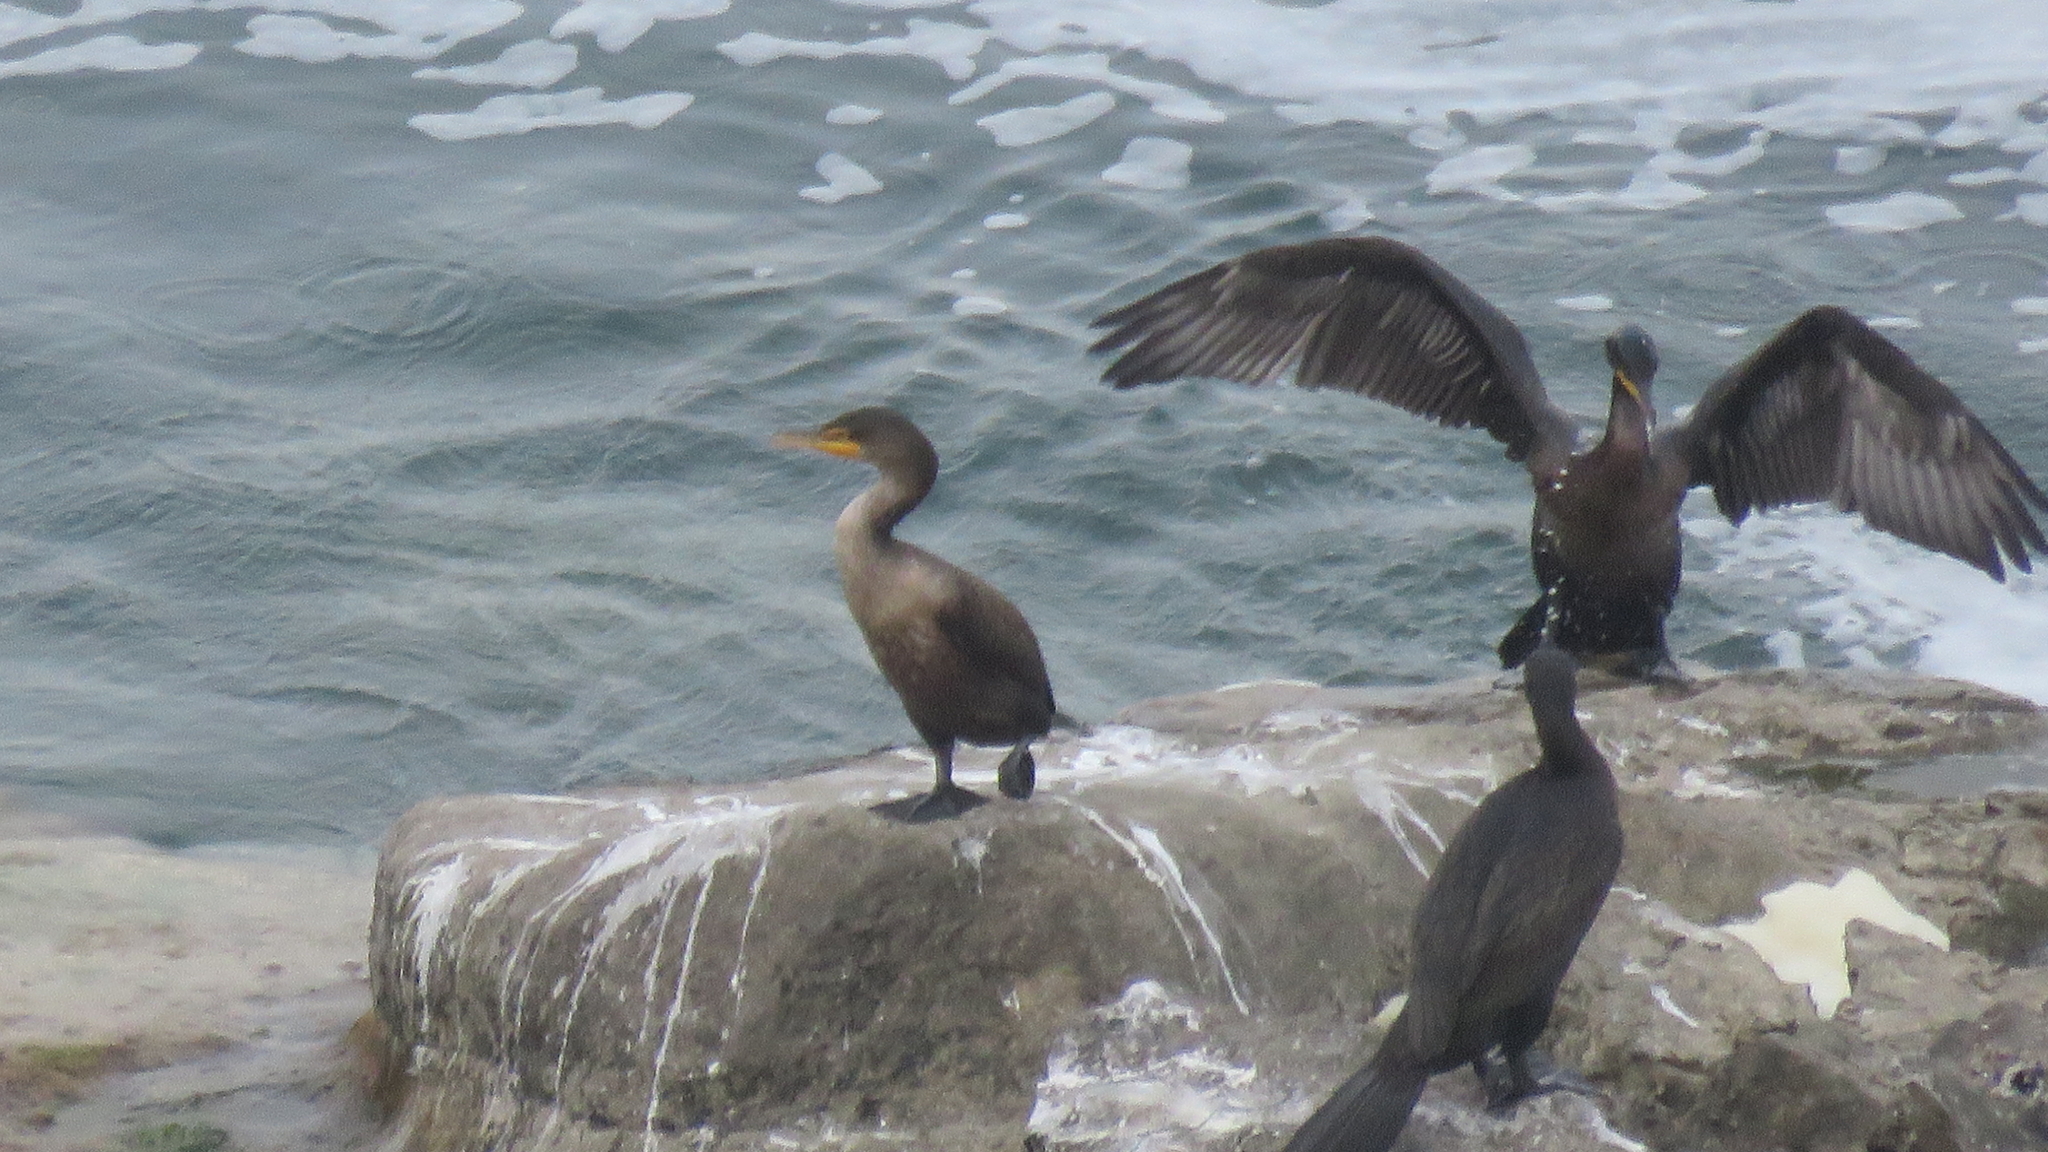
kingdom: Animalia
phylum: Chordata
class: Aves
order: Suliformes
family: Phalacrocoracidae
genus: Phalacrocorax
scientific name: Phalacrocorax auritus
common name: Double-crested cormorant
